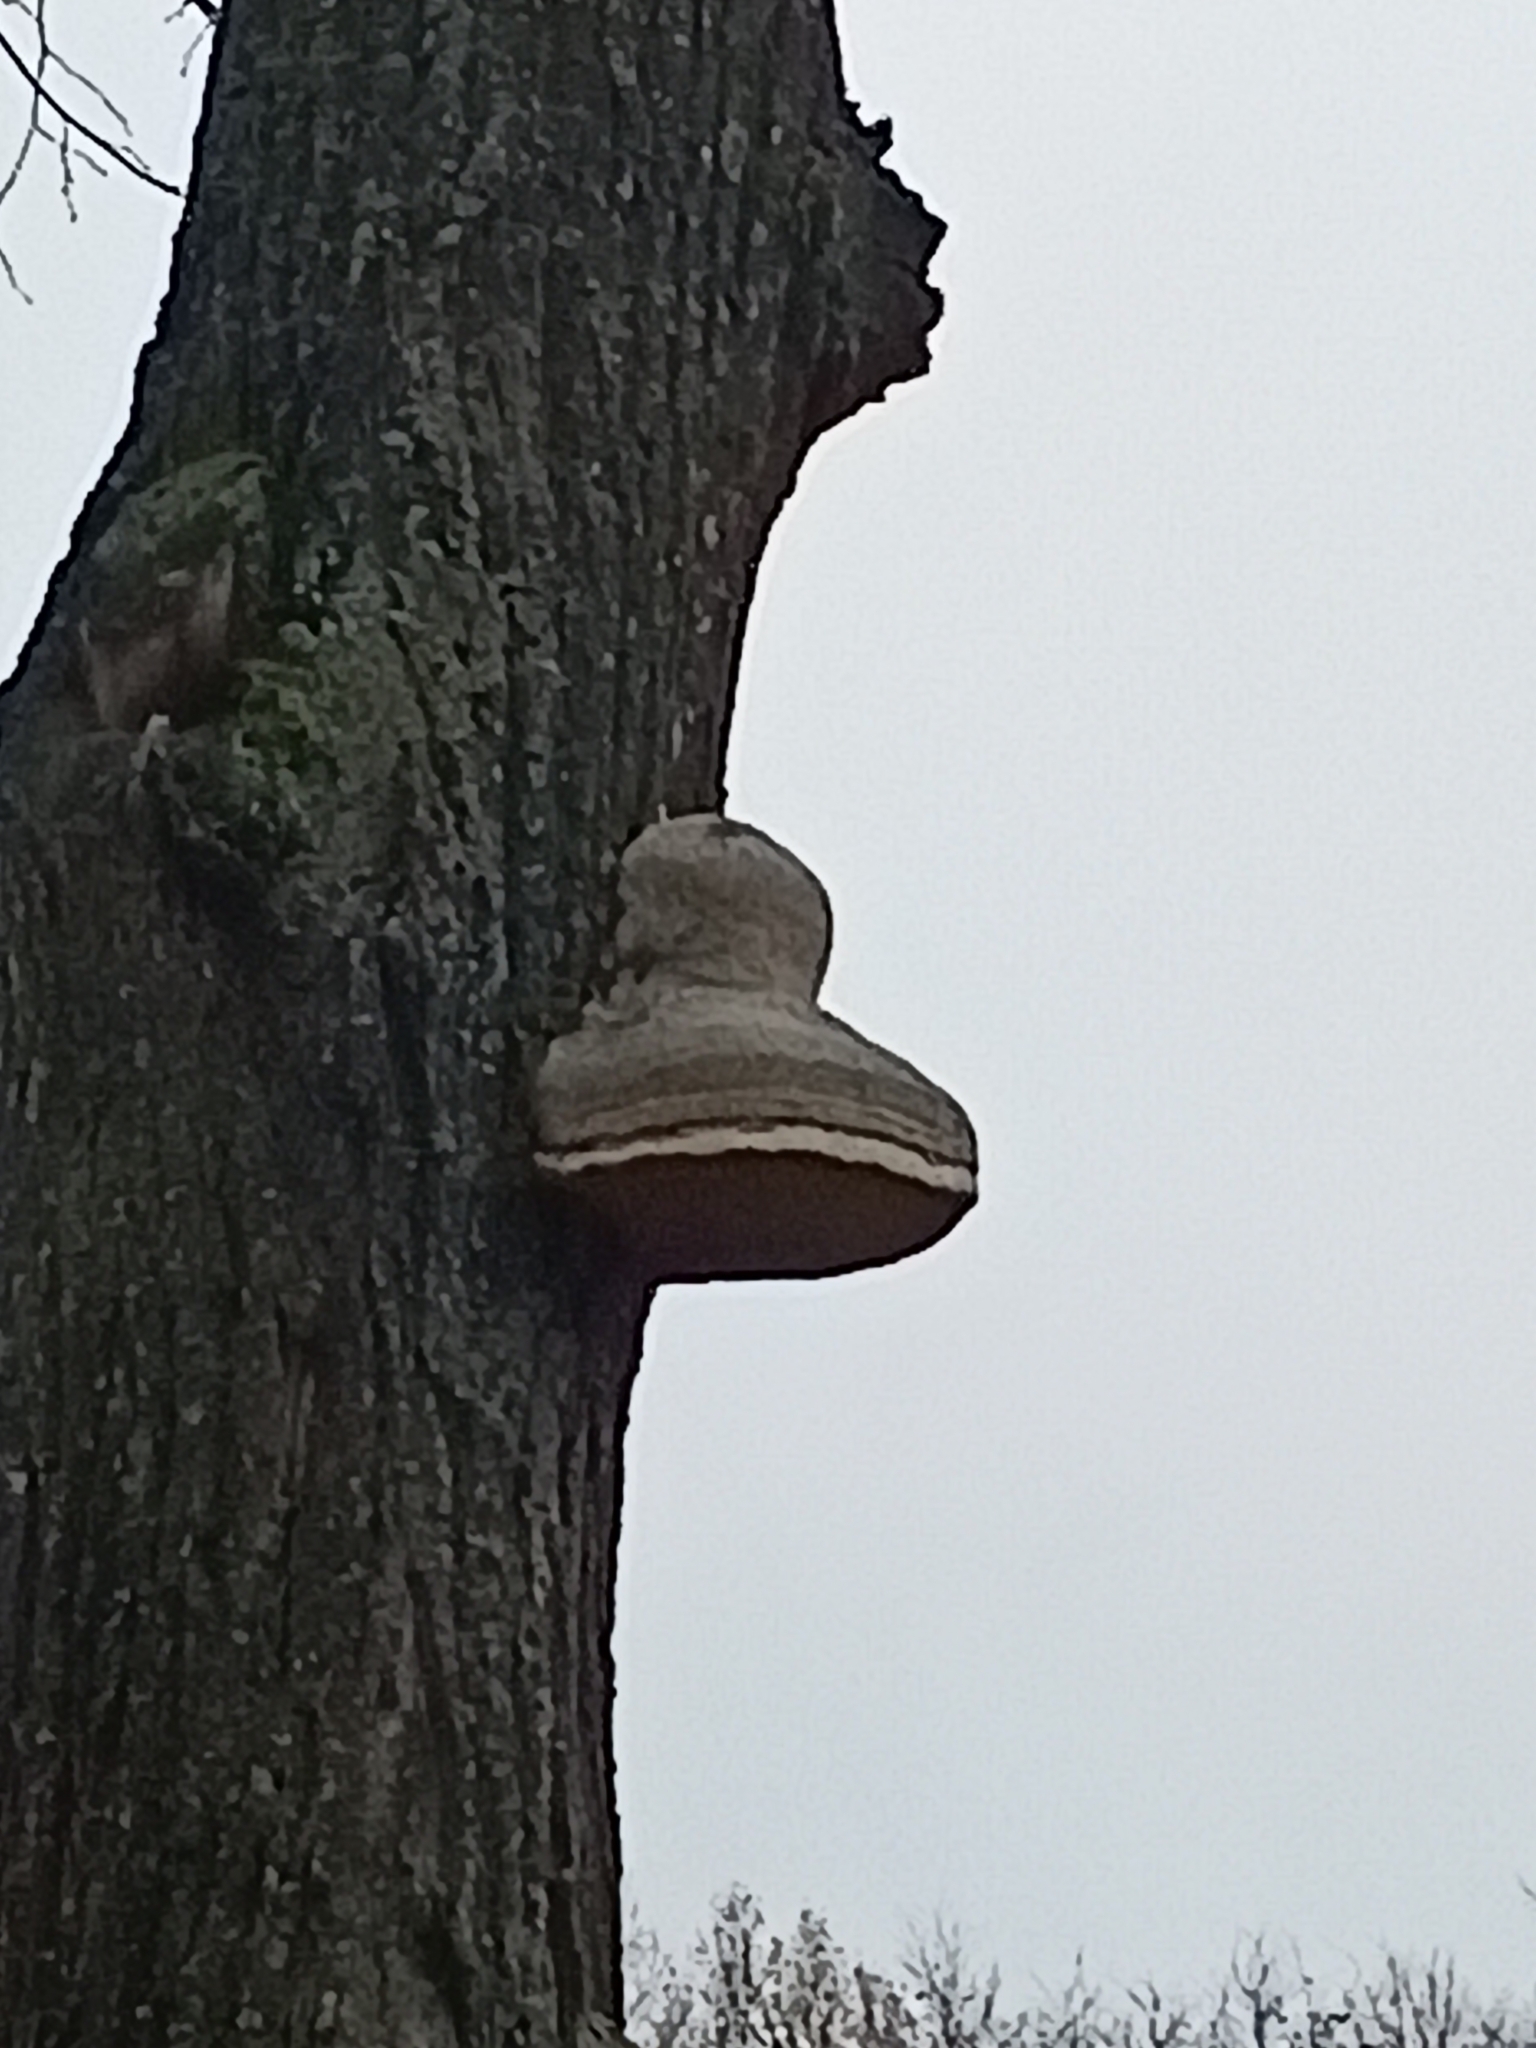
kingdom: Fungi
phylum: Basidiomycota
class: Agaricomycetes
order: Polyporales
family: Polyporaceae
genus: Fomes
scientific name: Fomes fomentarius
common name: Hoof fungus
